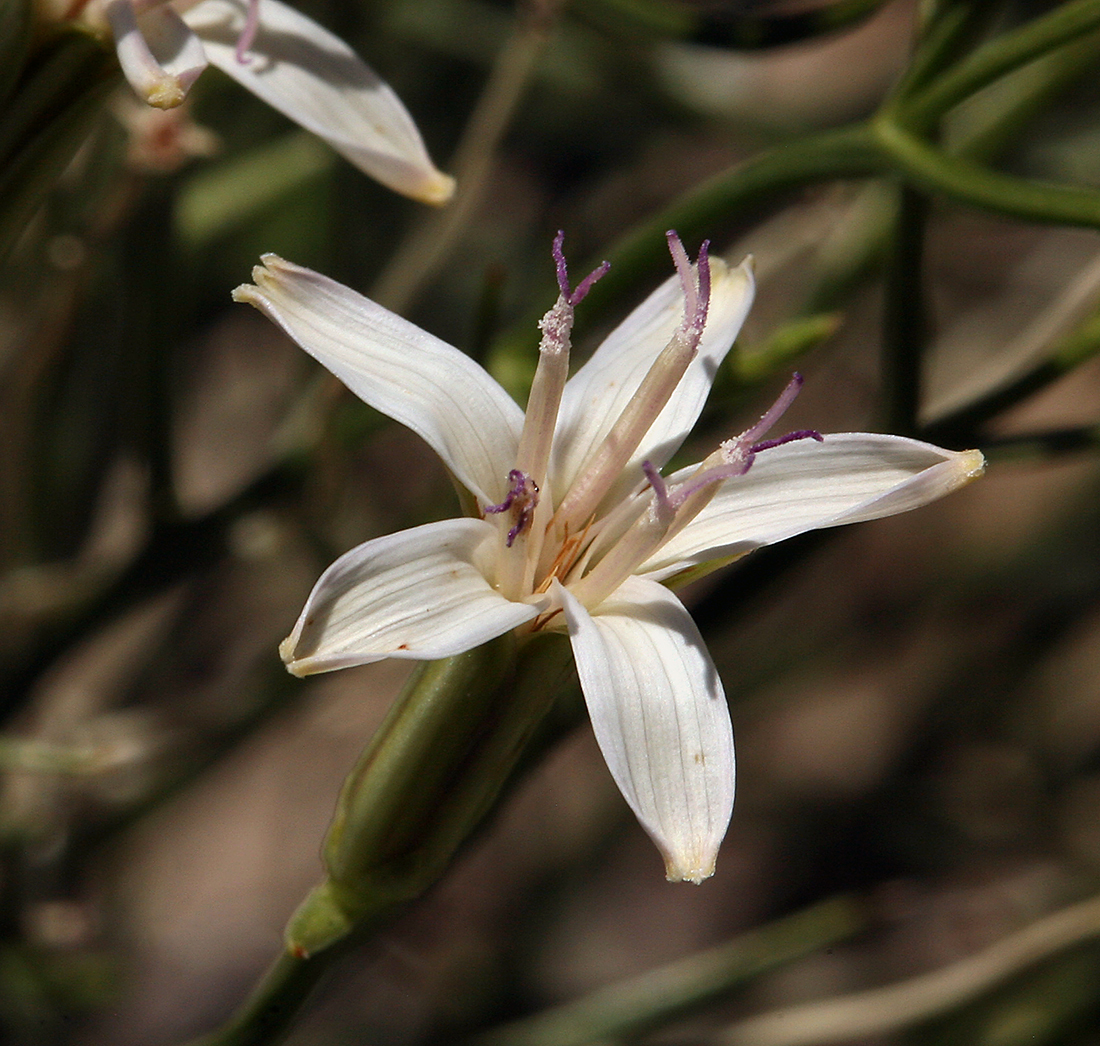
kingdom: Plantae
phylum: Tracheophyta
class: Magnoliopsida
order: Asterales
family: Asteraceae
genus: Chaetadelpha
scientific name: Chaetadelpha wheeleri
